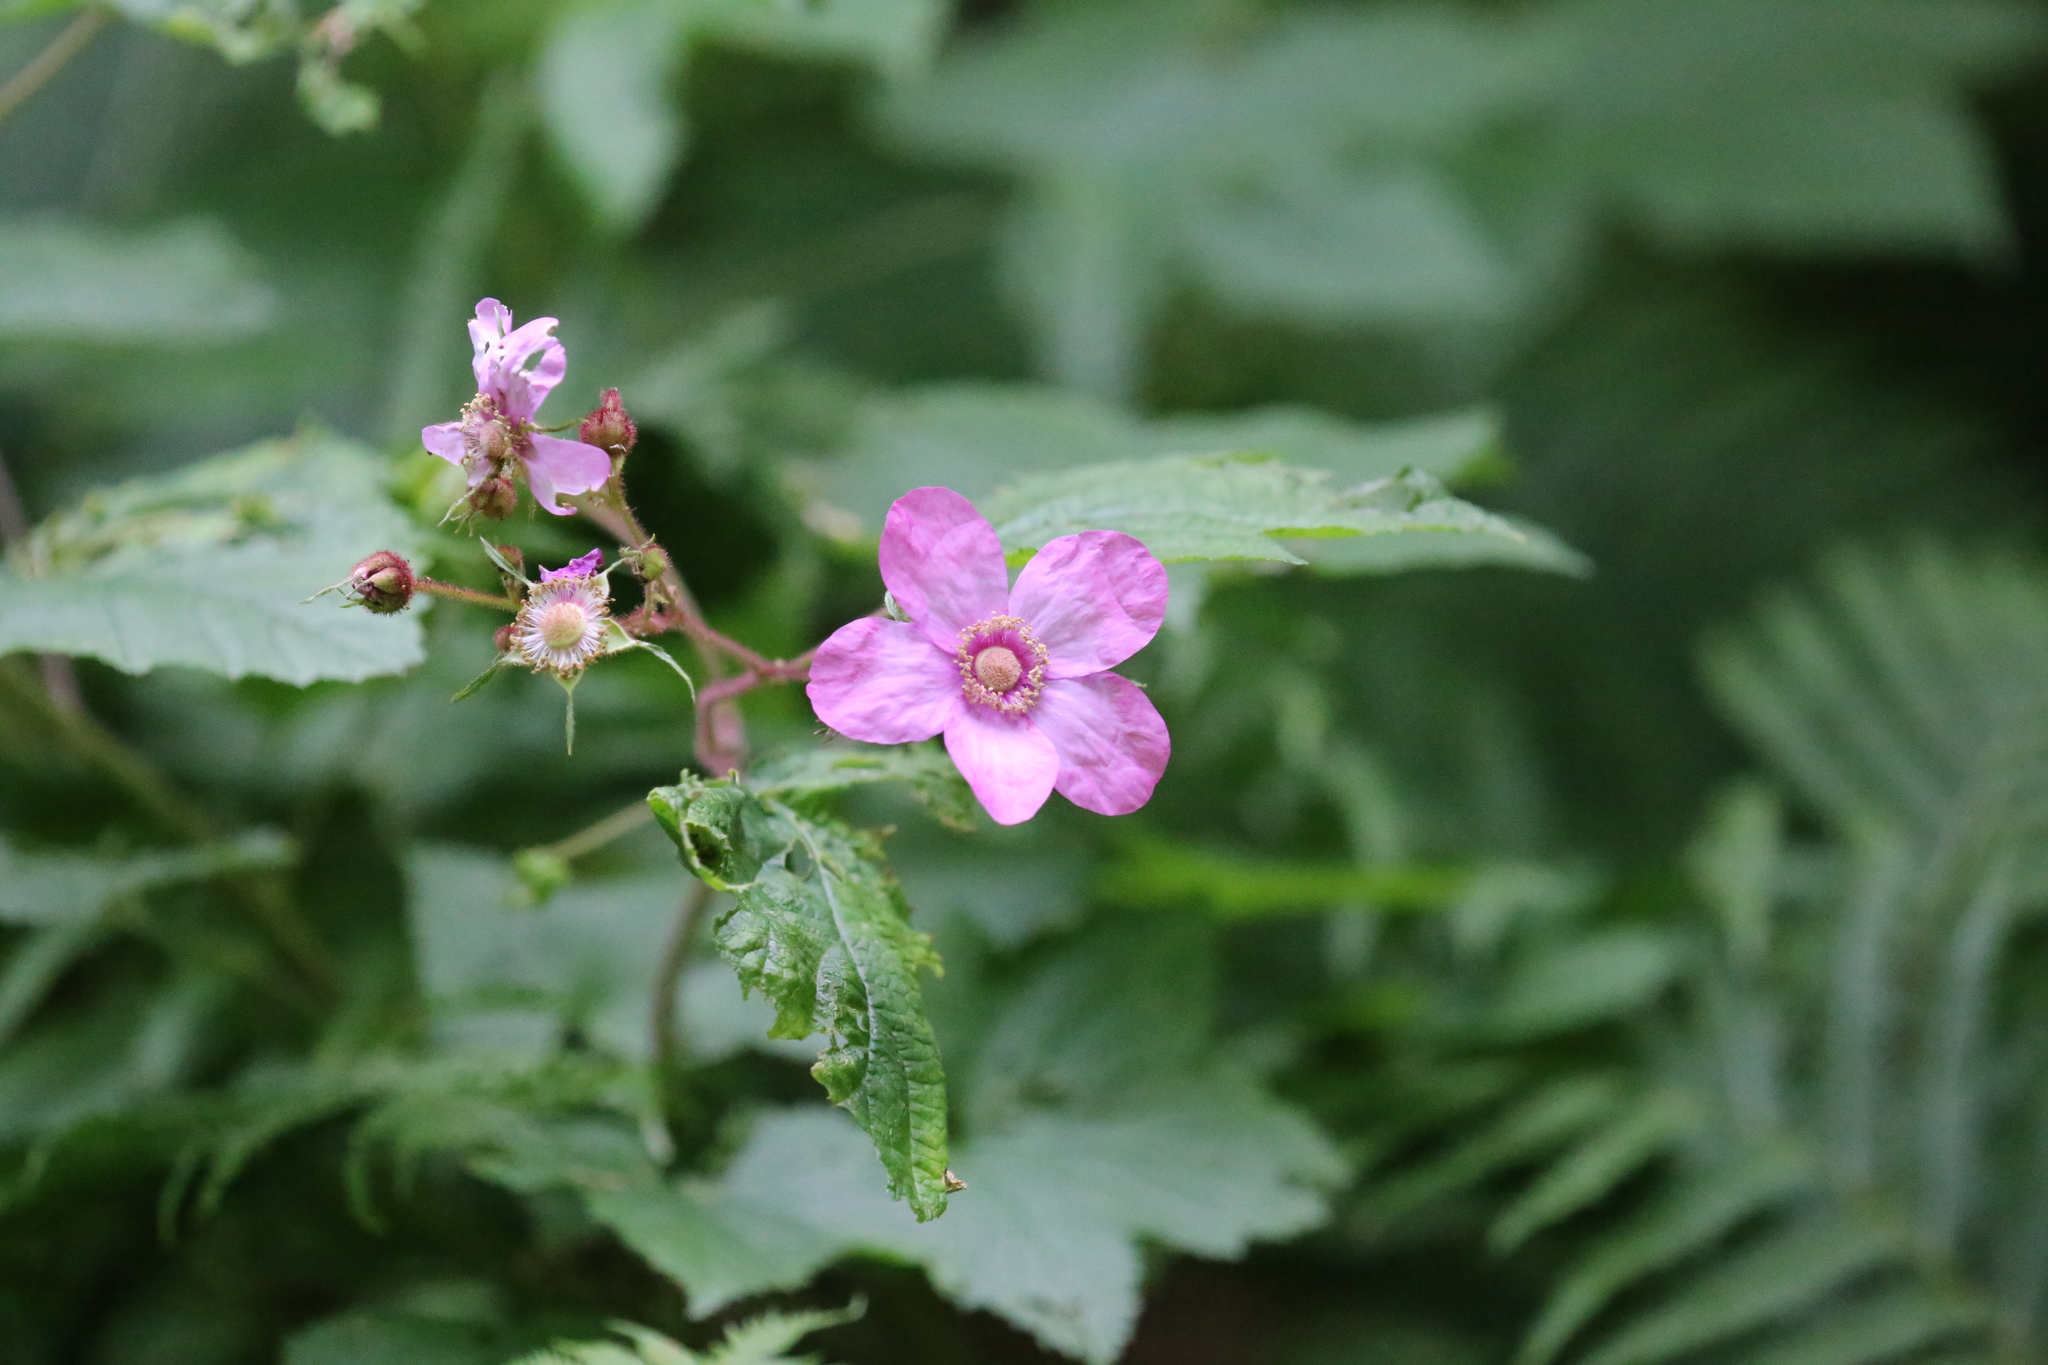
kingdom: Plantae
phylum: Tracheophyta
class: Magnoliopsida
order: Rosales
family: Rosaceae
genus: Rubus
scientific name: Rubus odoratus
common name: Purple-flowered raspberry
